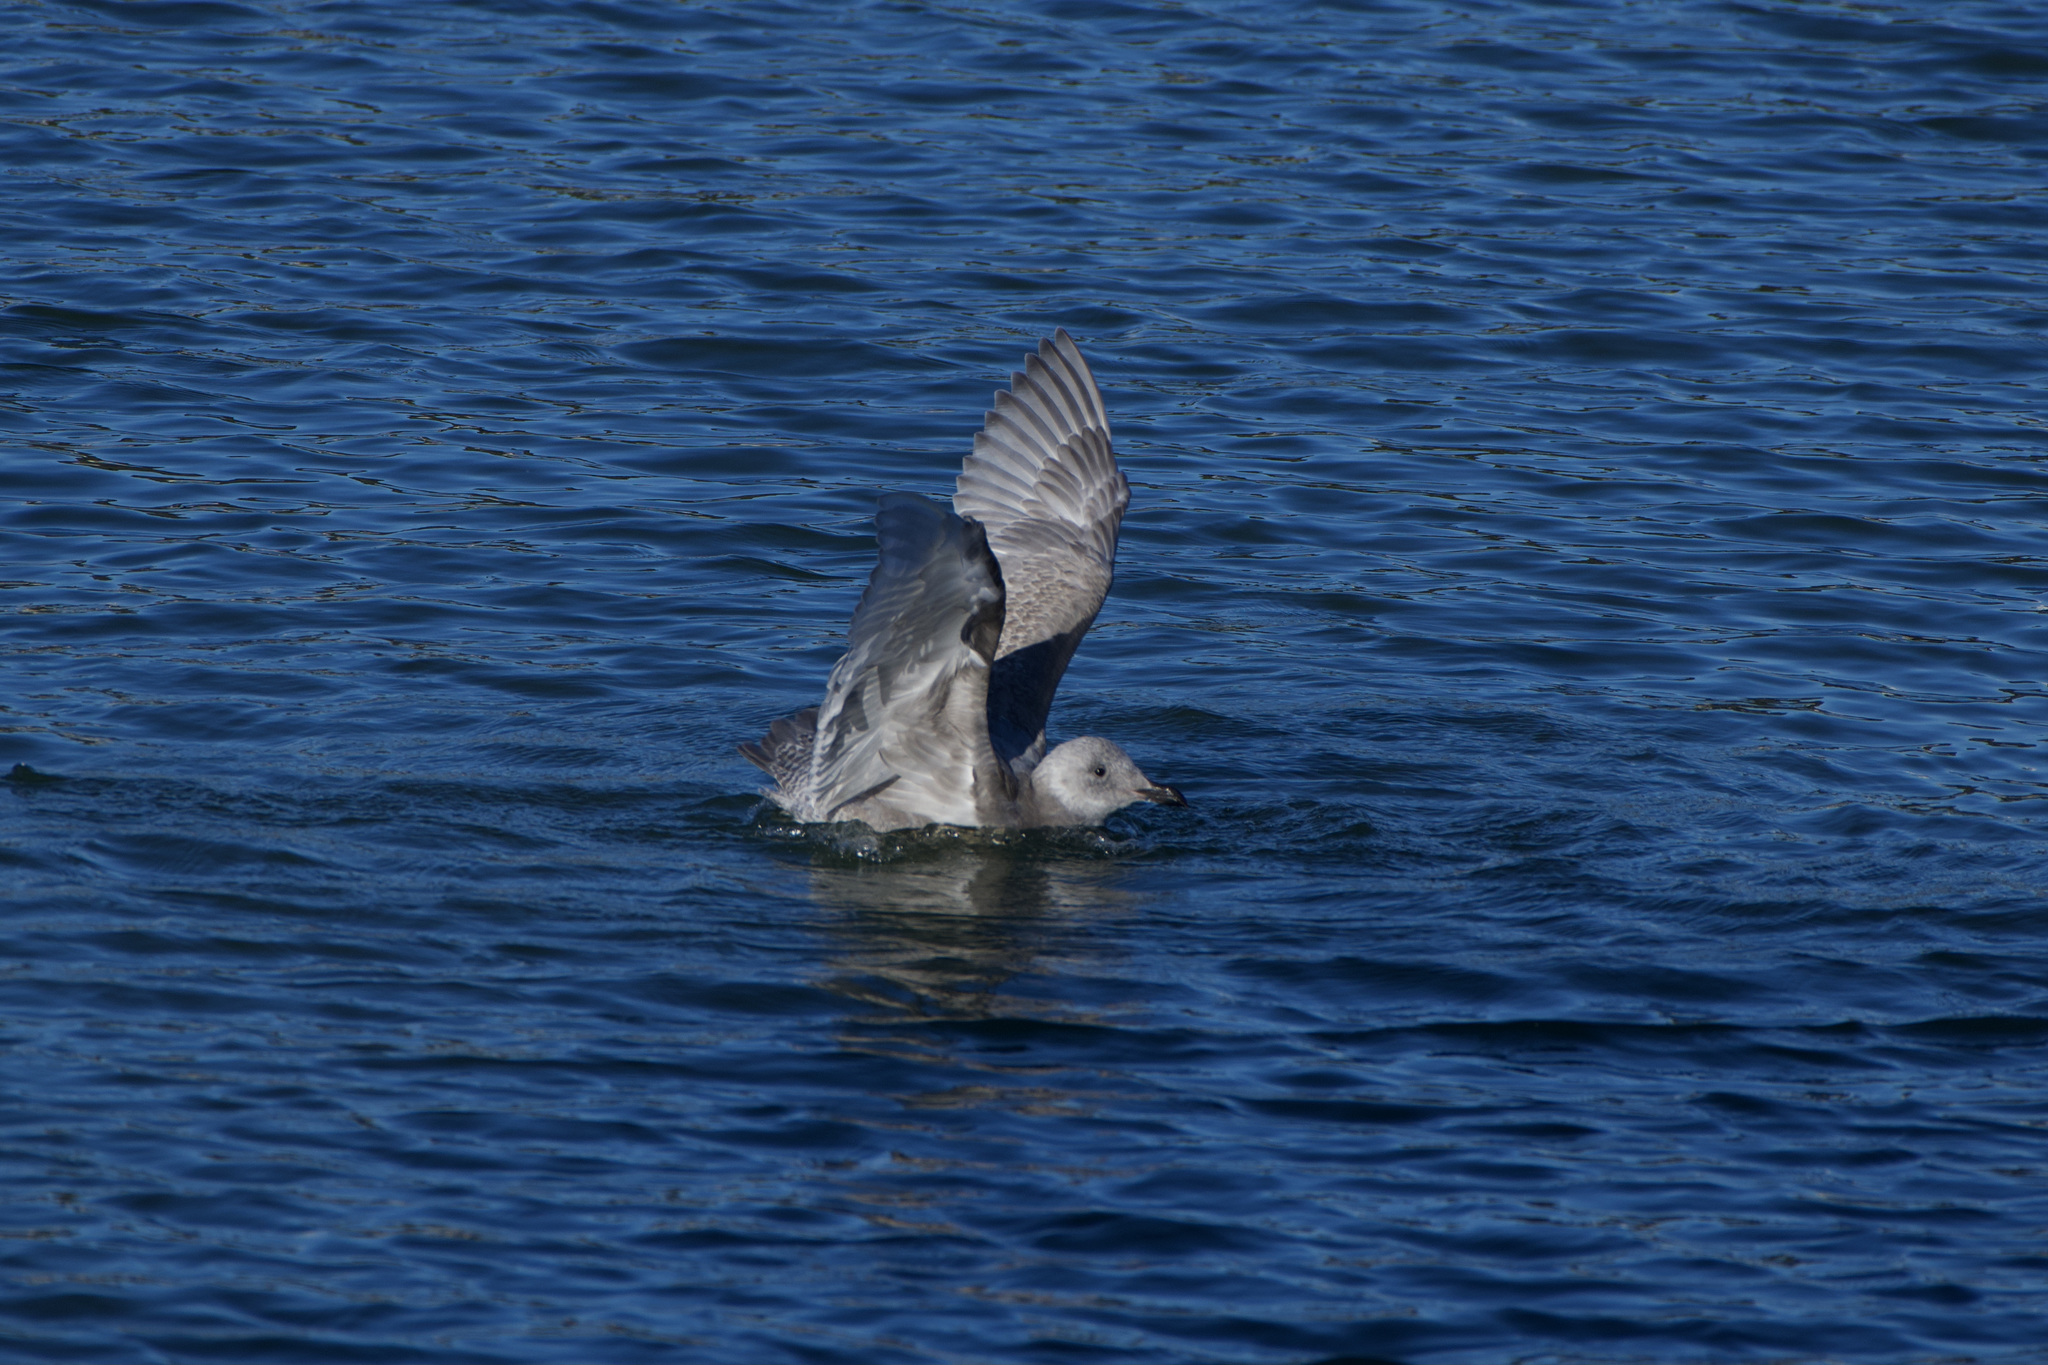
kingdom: Animalia
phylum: Chordata
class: Aves
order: Charadriiformes
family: Laridae
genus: Larus
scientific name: Larus glaucoides
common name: Iceland gull
